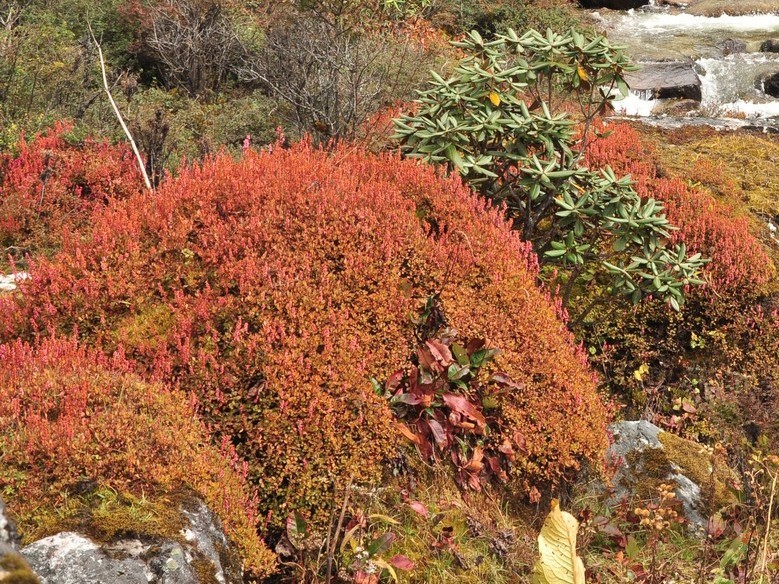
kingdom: Plantae
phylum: Tracheophyta
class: Magnoliopsida
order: Caryophyllales
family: Polygonaceae
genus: Bistorta
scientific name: Bistorta vacciniifolia
